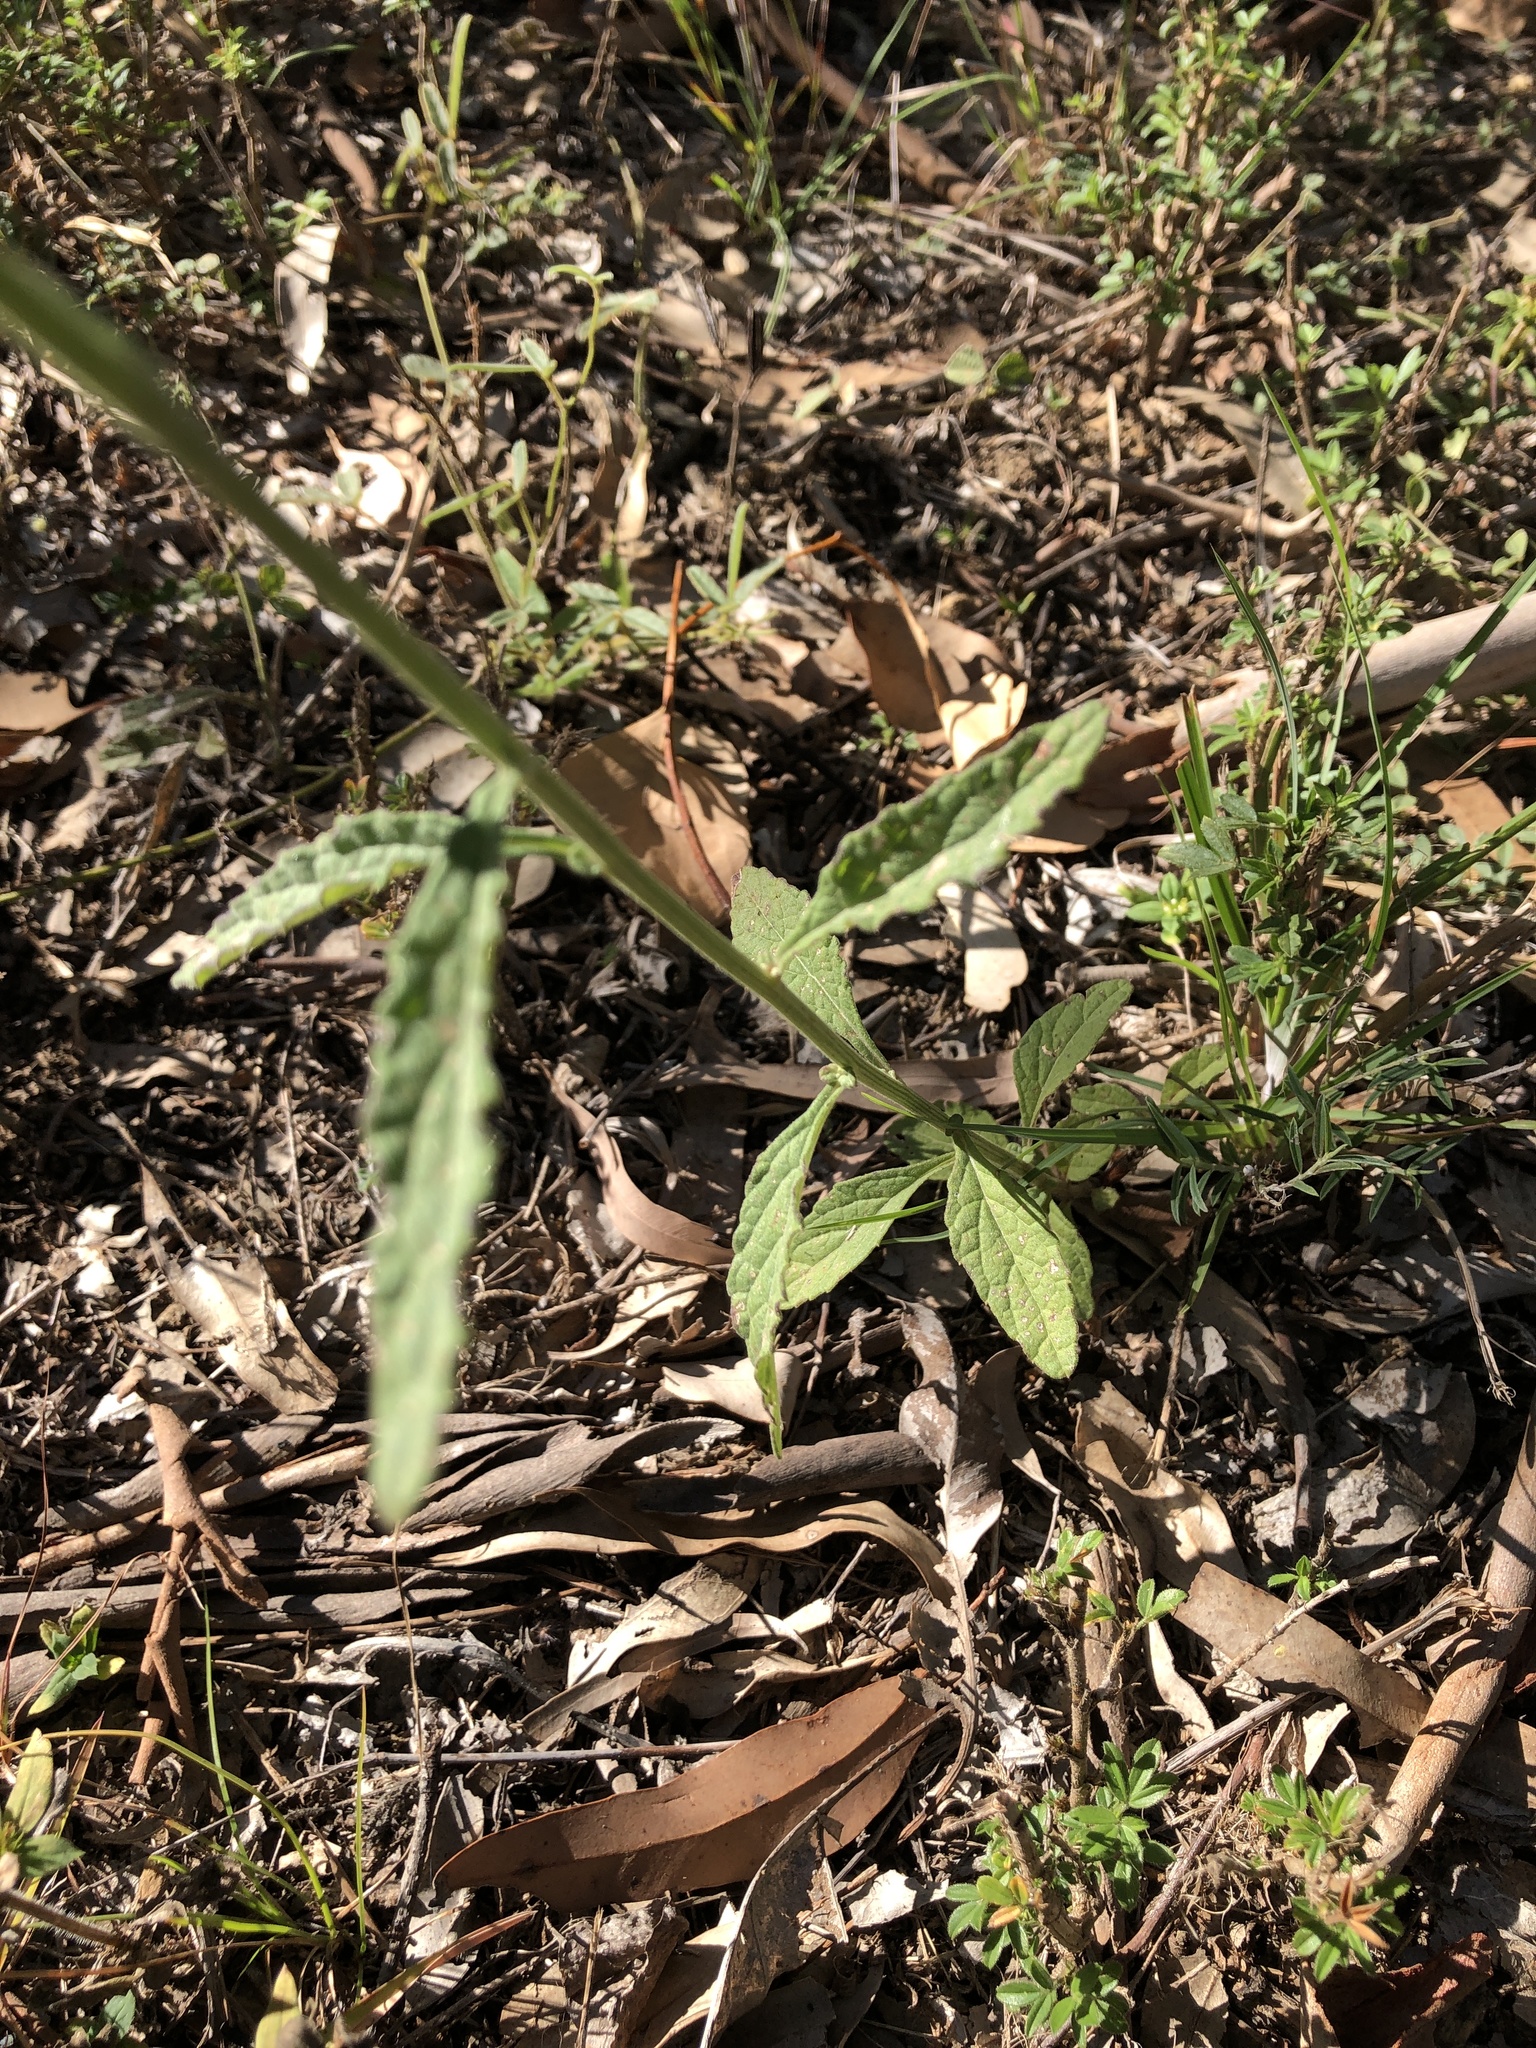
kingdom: Plantae
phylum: Tracheophyta
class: Magnoliopsida
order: Asterales
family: Asteraceae
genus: Cyanthillium
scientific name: Cyanthillium cinereum
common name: Little ironweed
